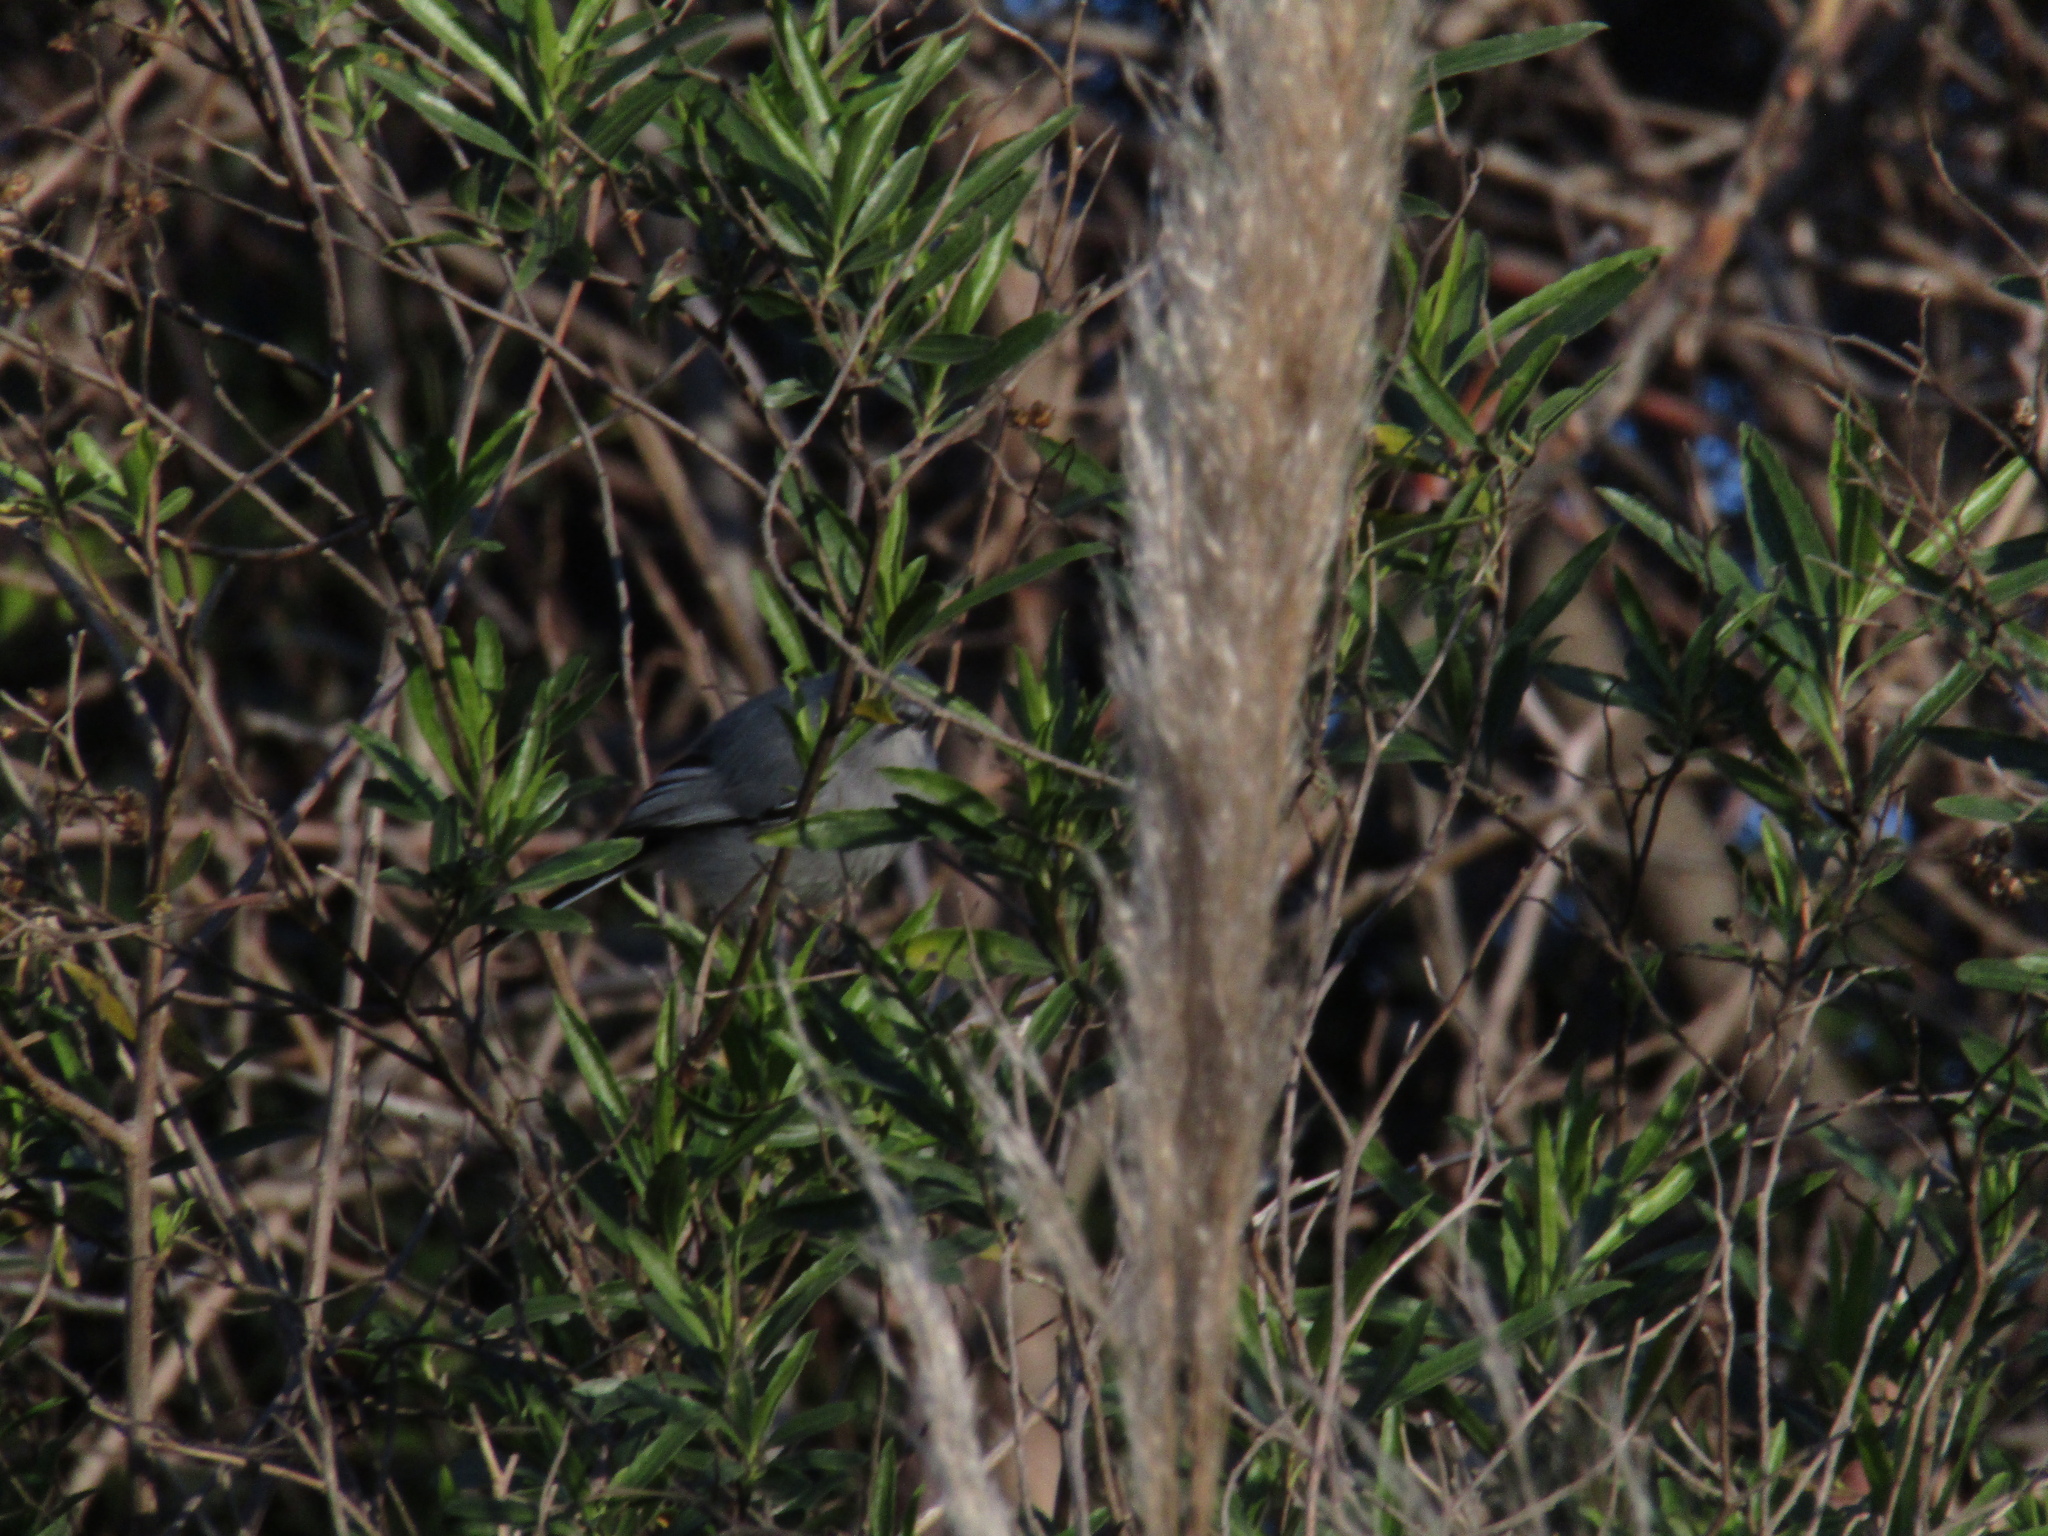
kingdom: Animalia
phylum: Chordata
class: Aves
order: Passeriformes
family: Polioptilidae
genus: Polioptila
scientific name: Polioptila dumicola
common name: Masked gnatcatcher
